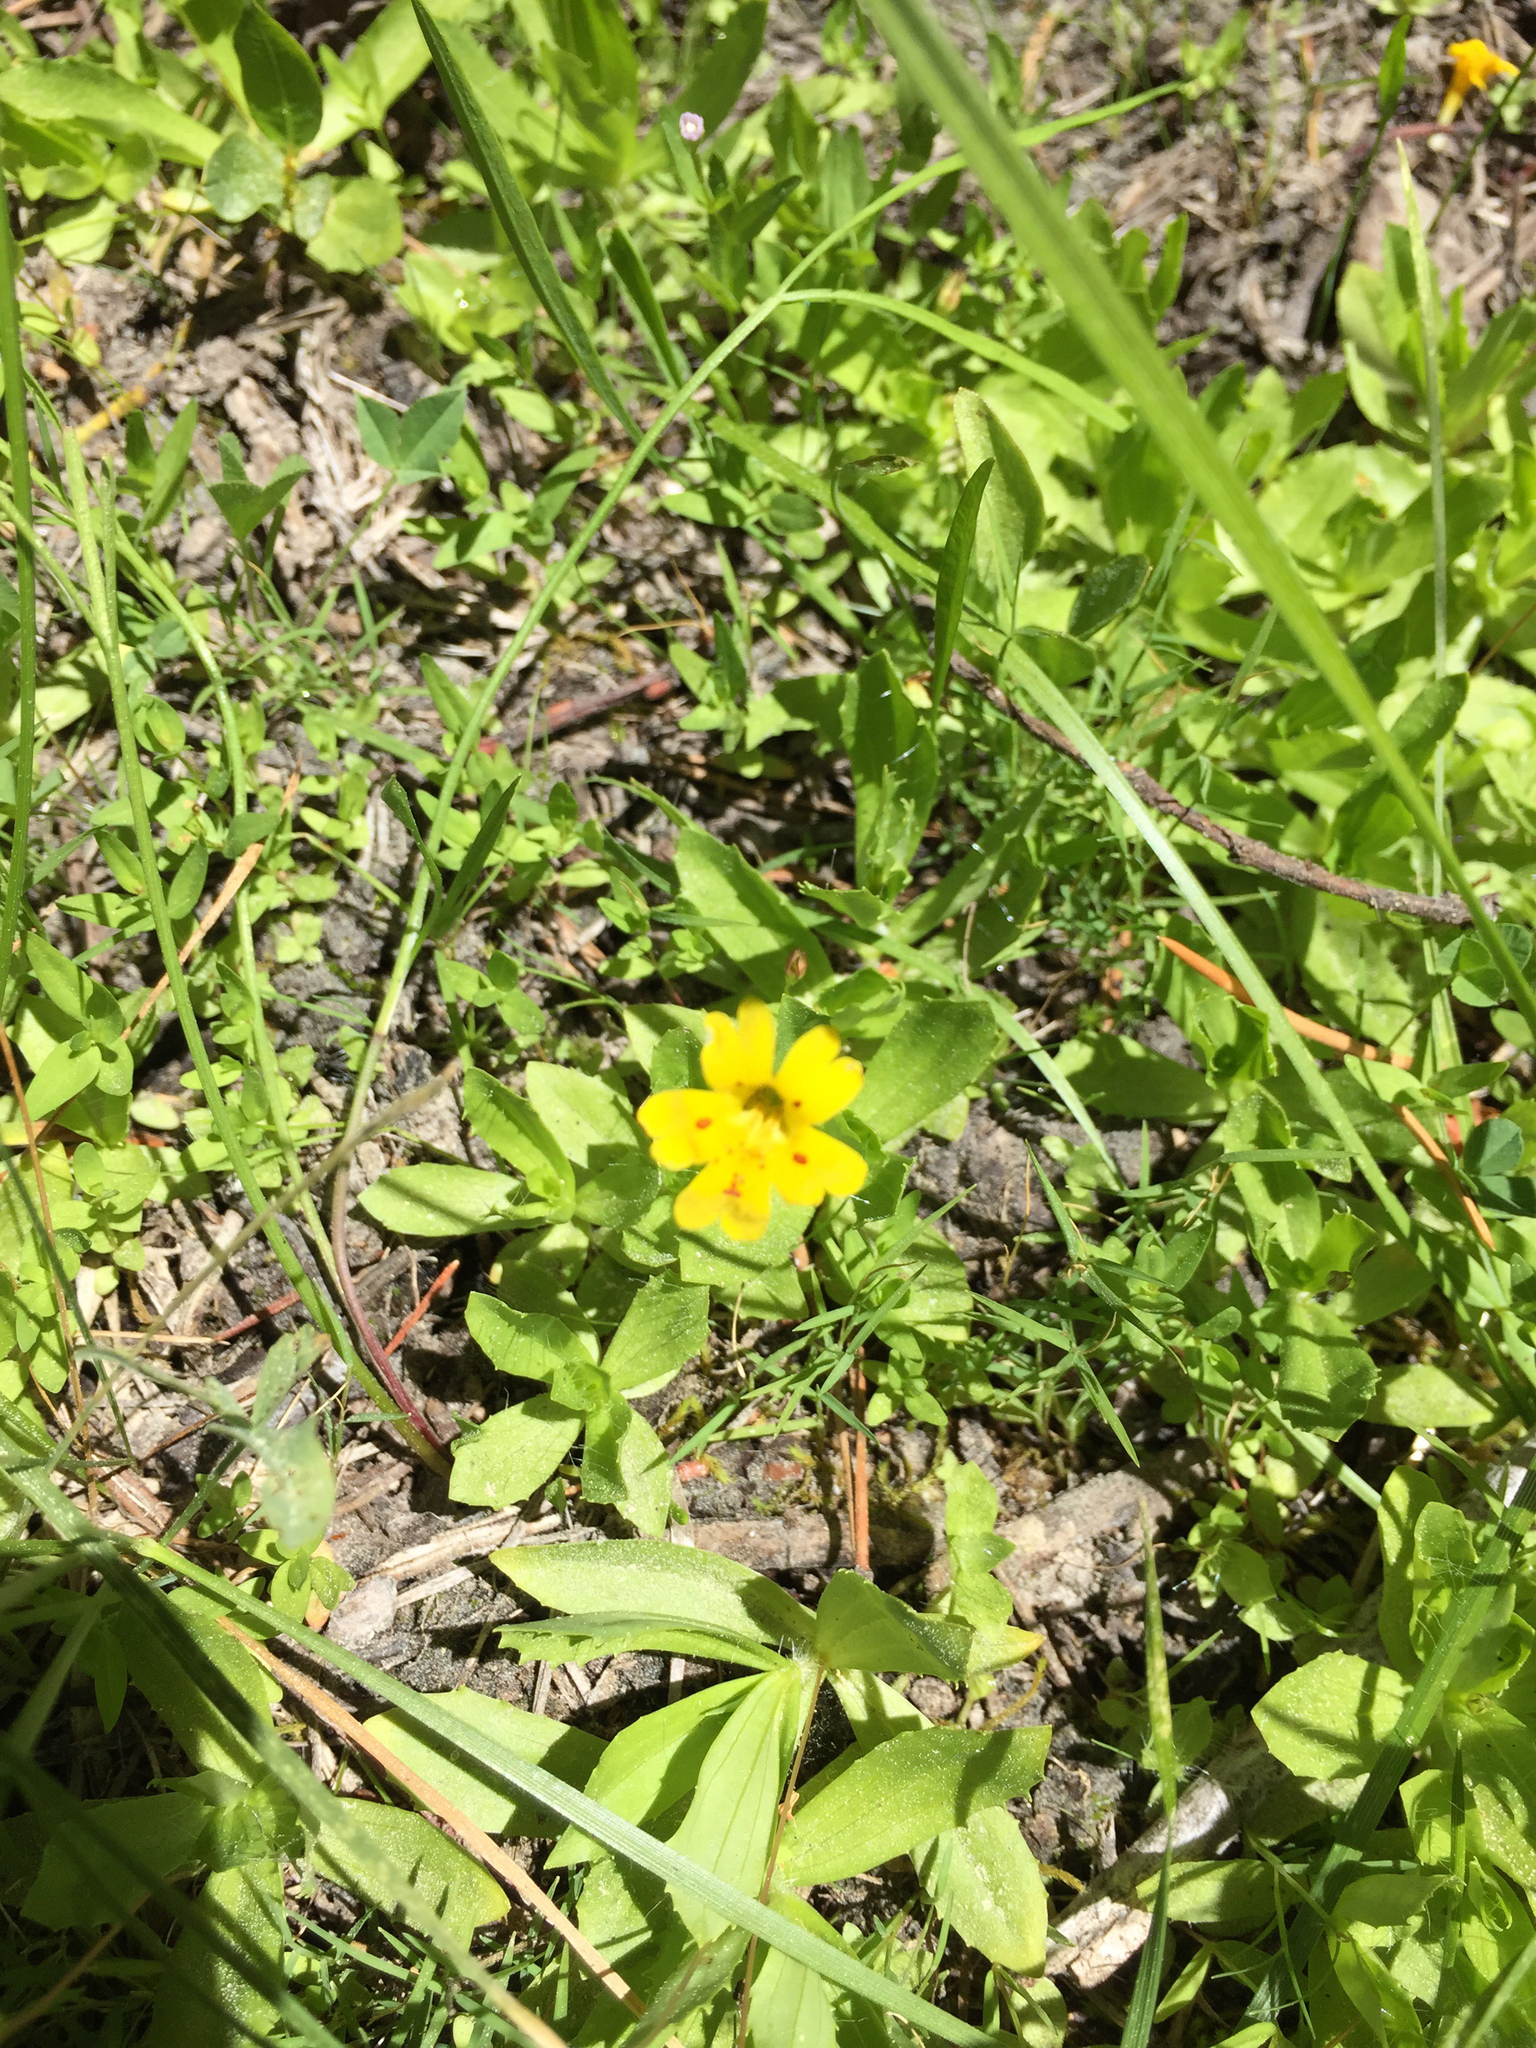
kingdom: Plantae
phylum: Tracheophyta
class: Magnoliopsida
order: Lamiales
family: Phrymaceae
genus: Erythranthe
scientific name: Erythranthe primuloides
